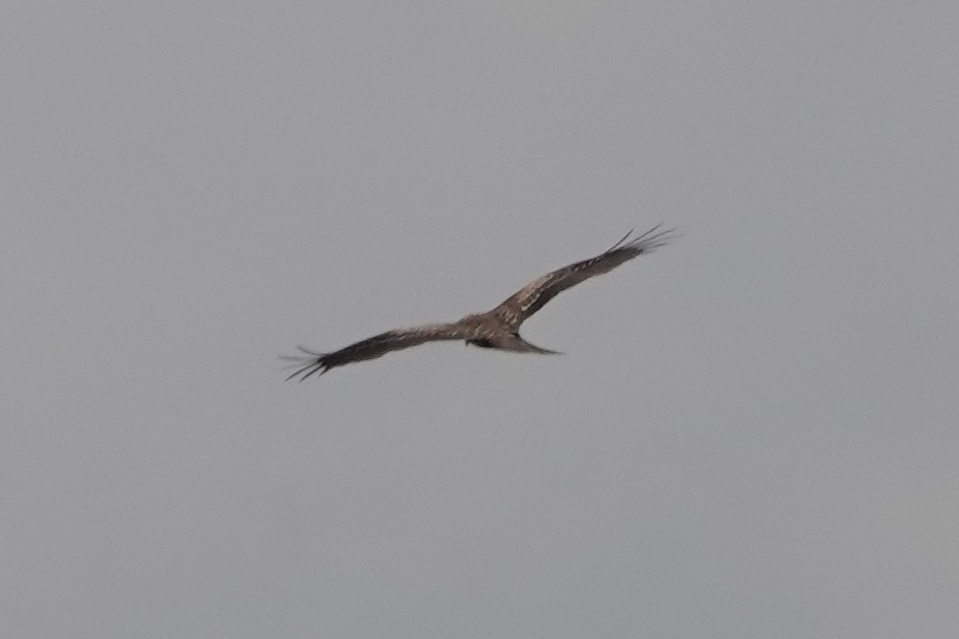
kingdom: Animalia
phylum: Chordata
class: Aves
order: Accipitriformes
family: Accipitridae
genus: Milvus
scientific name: Milvus migrans
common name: Black kite
